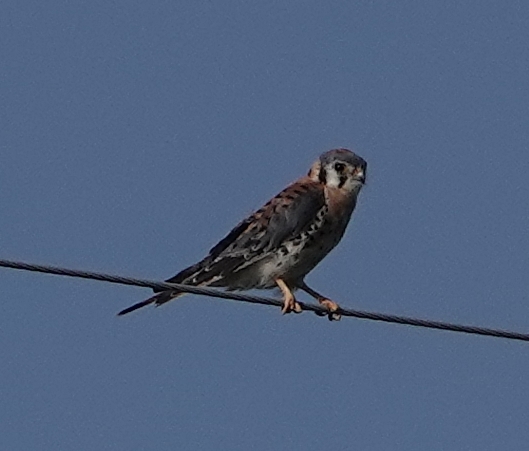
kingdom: Animalia
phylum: Chordata
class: Aves
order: Falconiformes
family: Falconidae
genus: Falco
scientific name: Falco sparverius
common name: American kestrel
